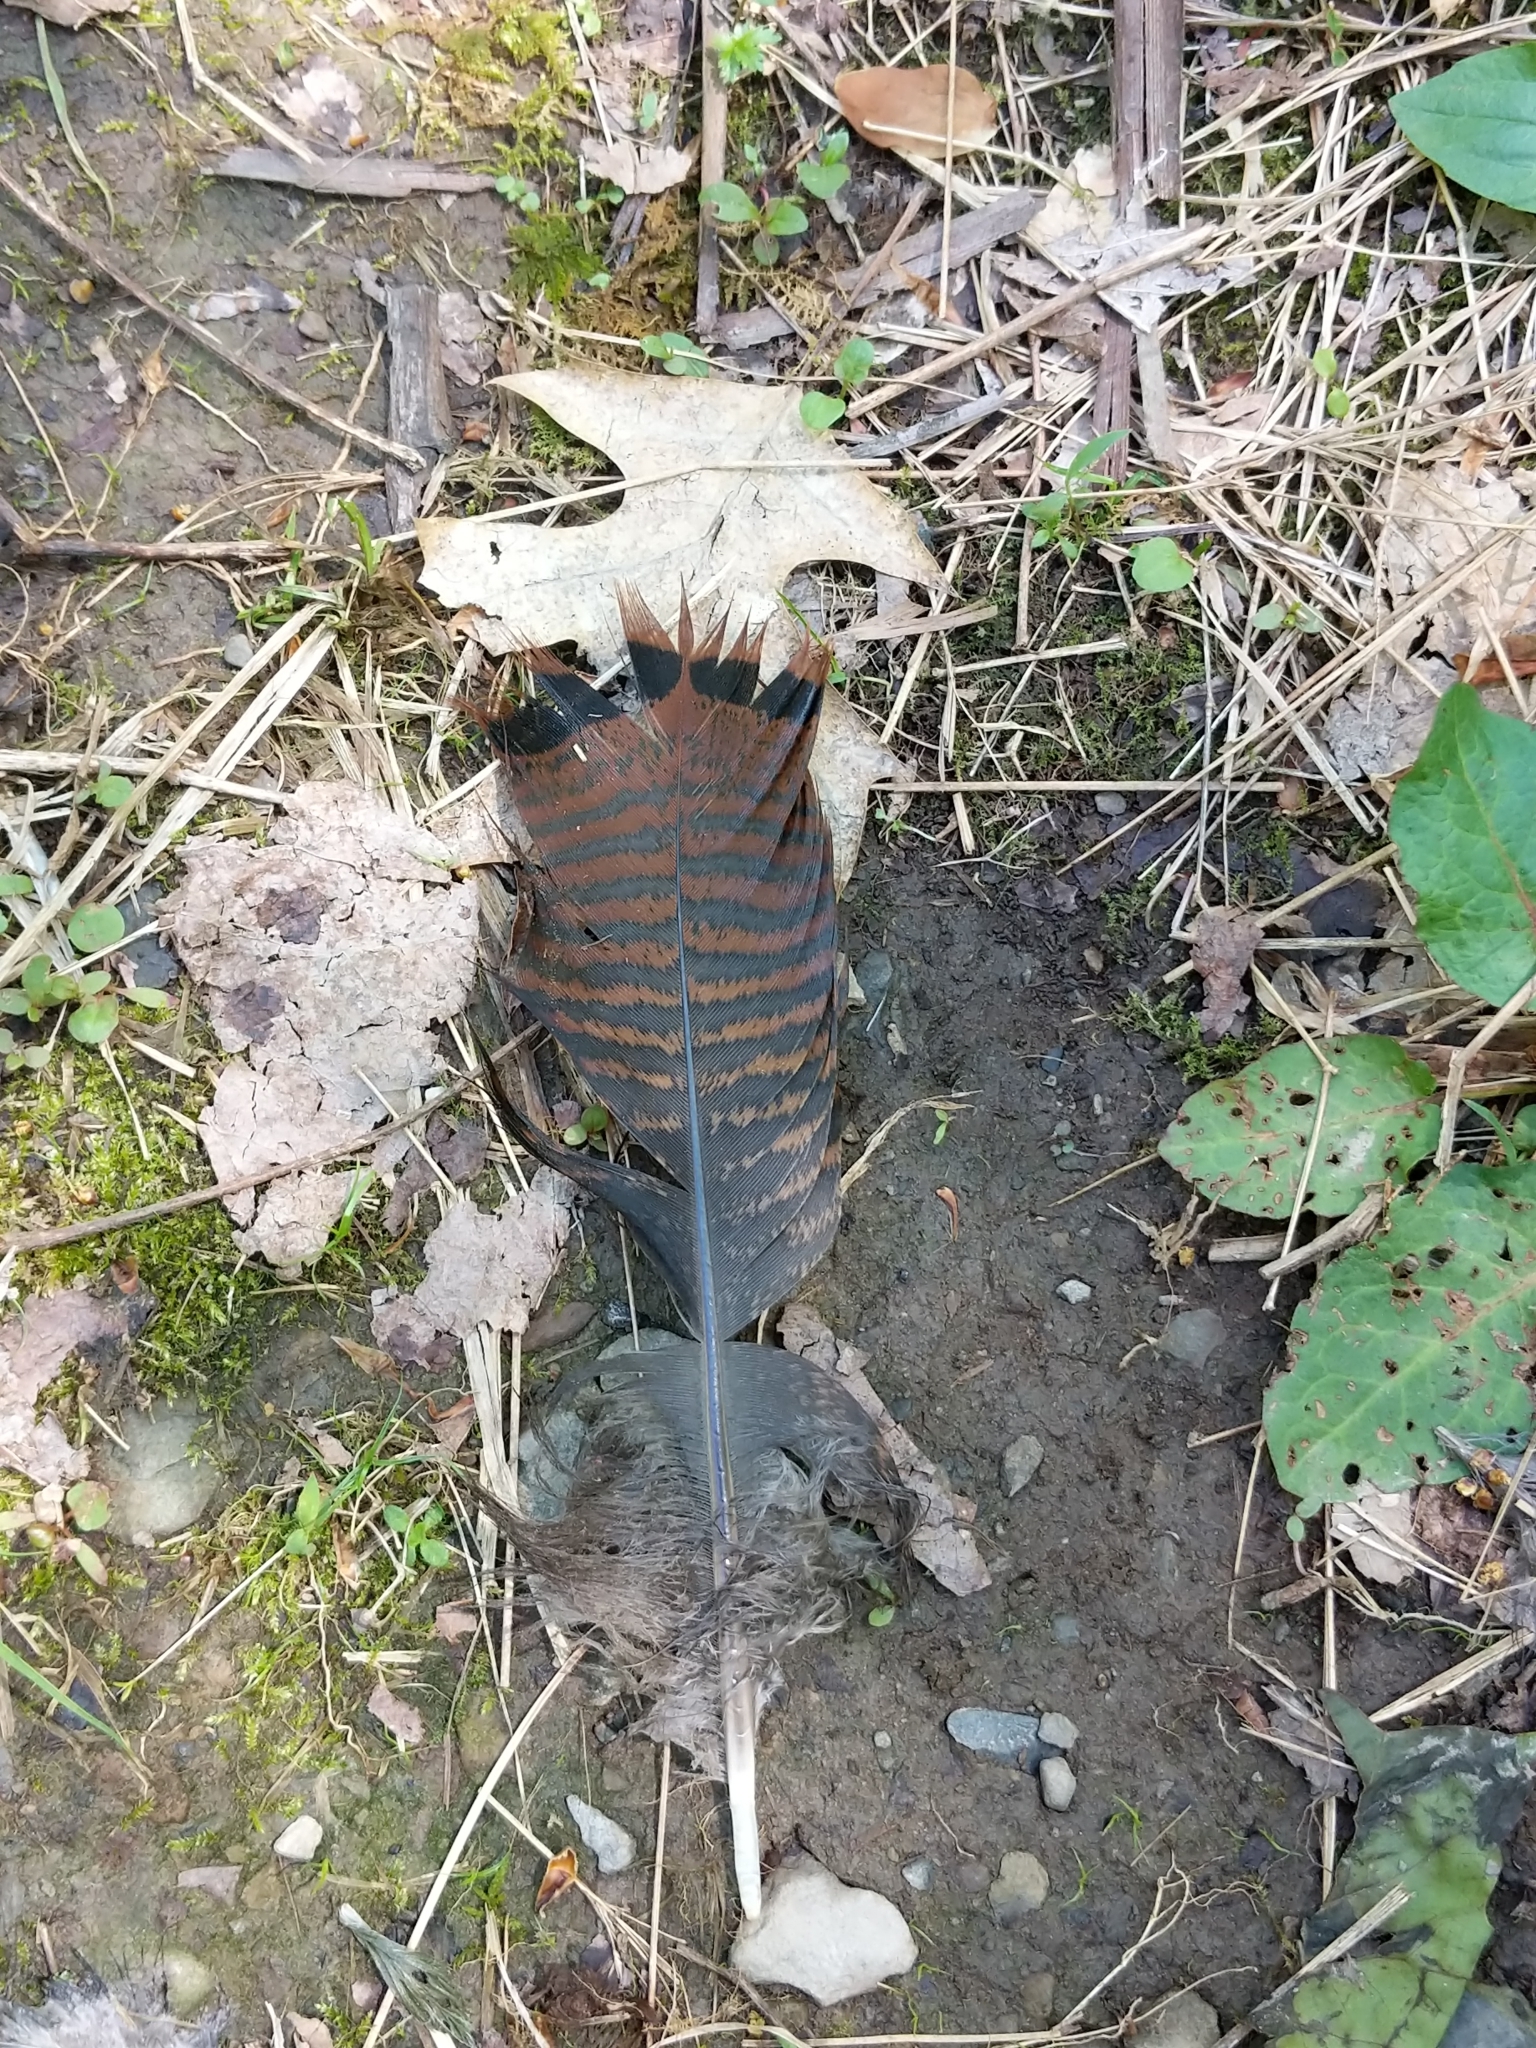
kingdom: Animalia
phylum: Chordata
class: Aves
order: Galliformes
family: Phasianidae
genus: Meleagris
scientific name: Meleagris gallopavo
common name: Wild turkey
